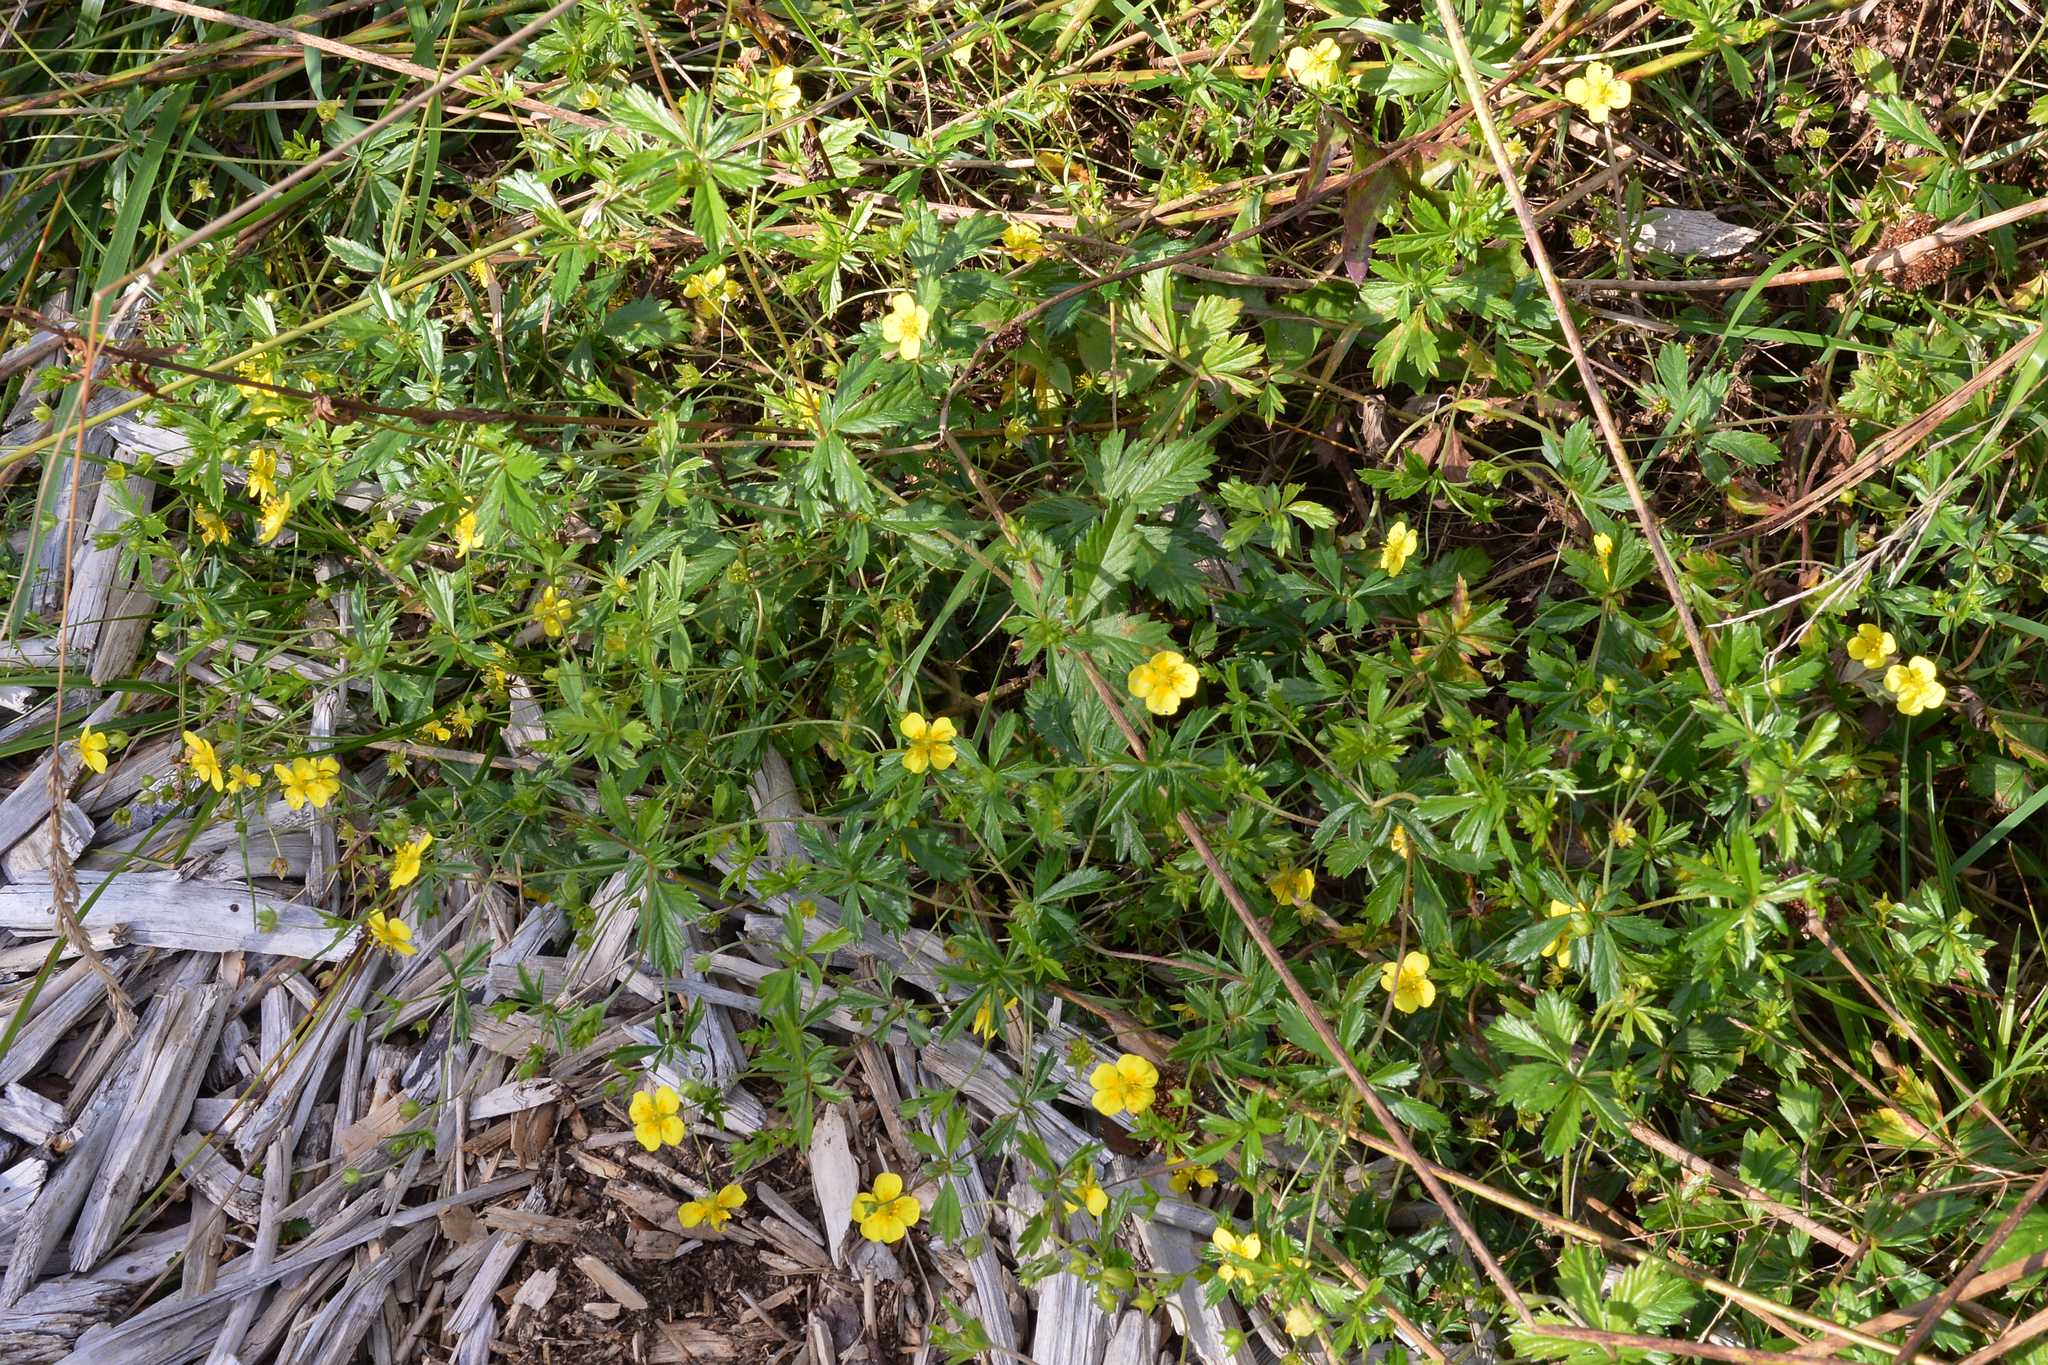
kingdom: Plantae
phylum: Tracheophyta
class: Magnoliopsida
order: Rosales
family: Rosaceae
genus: Potentilla
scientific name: Potentilla erecta
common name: Tormentil
